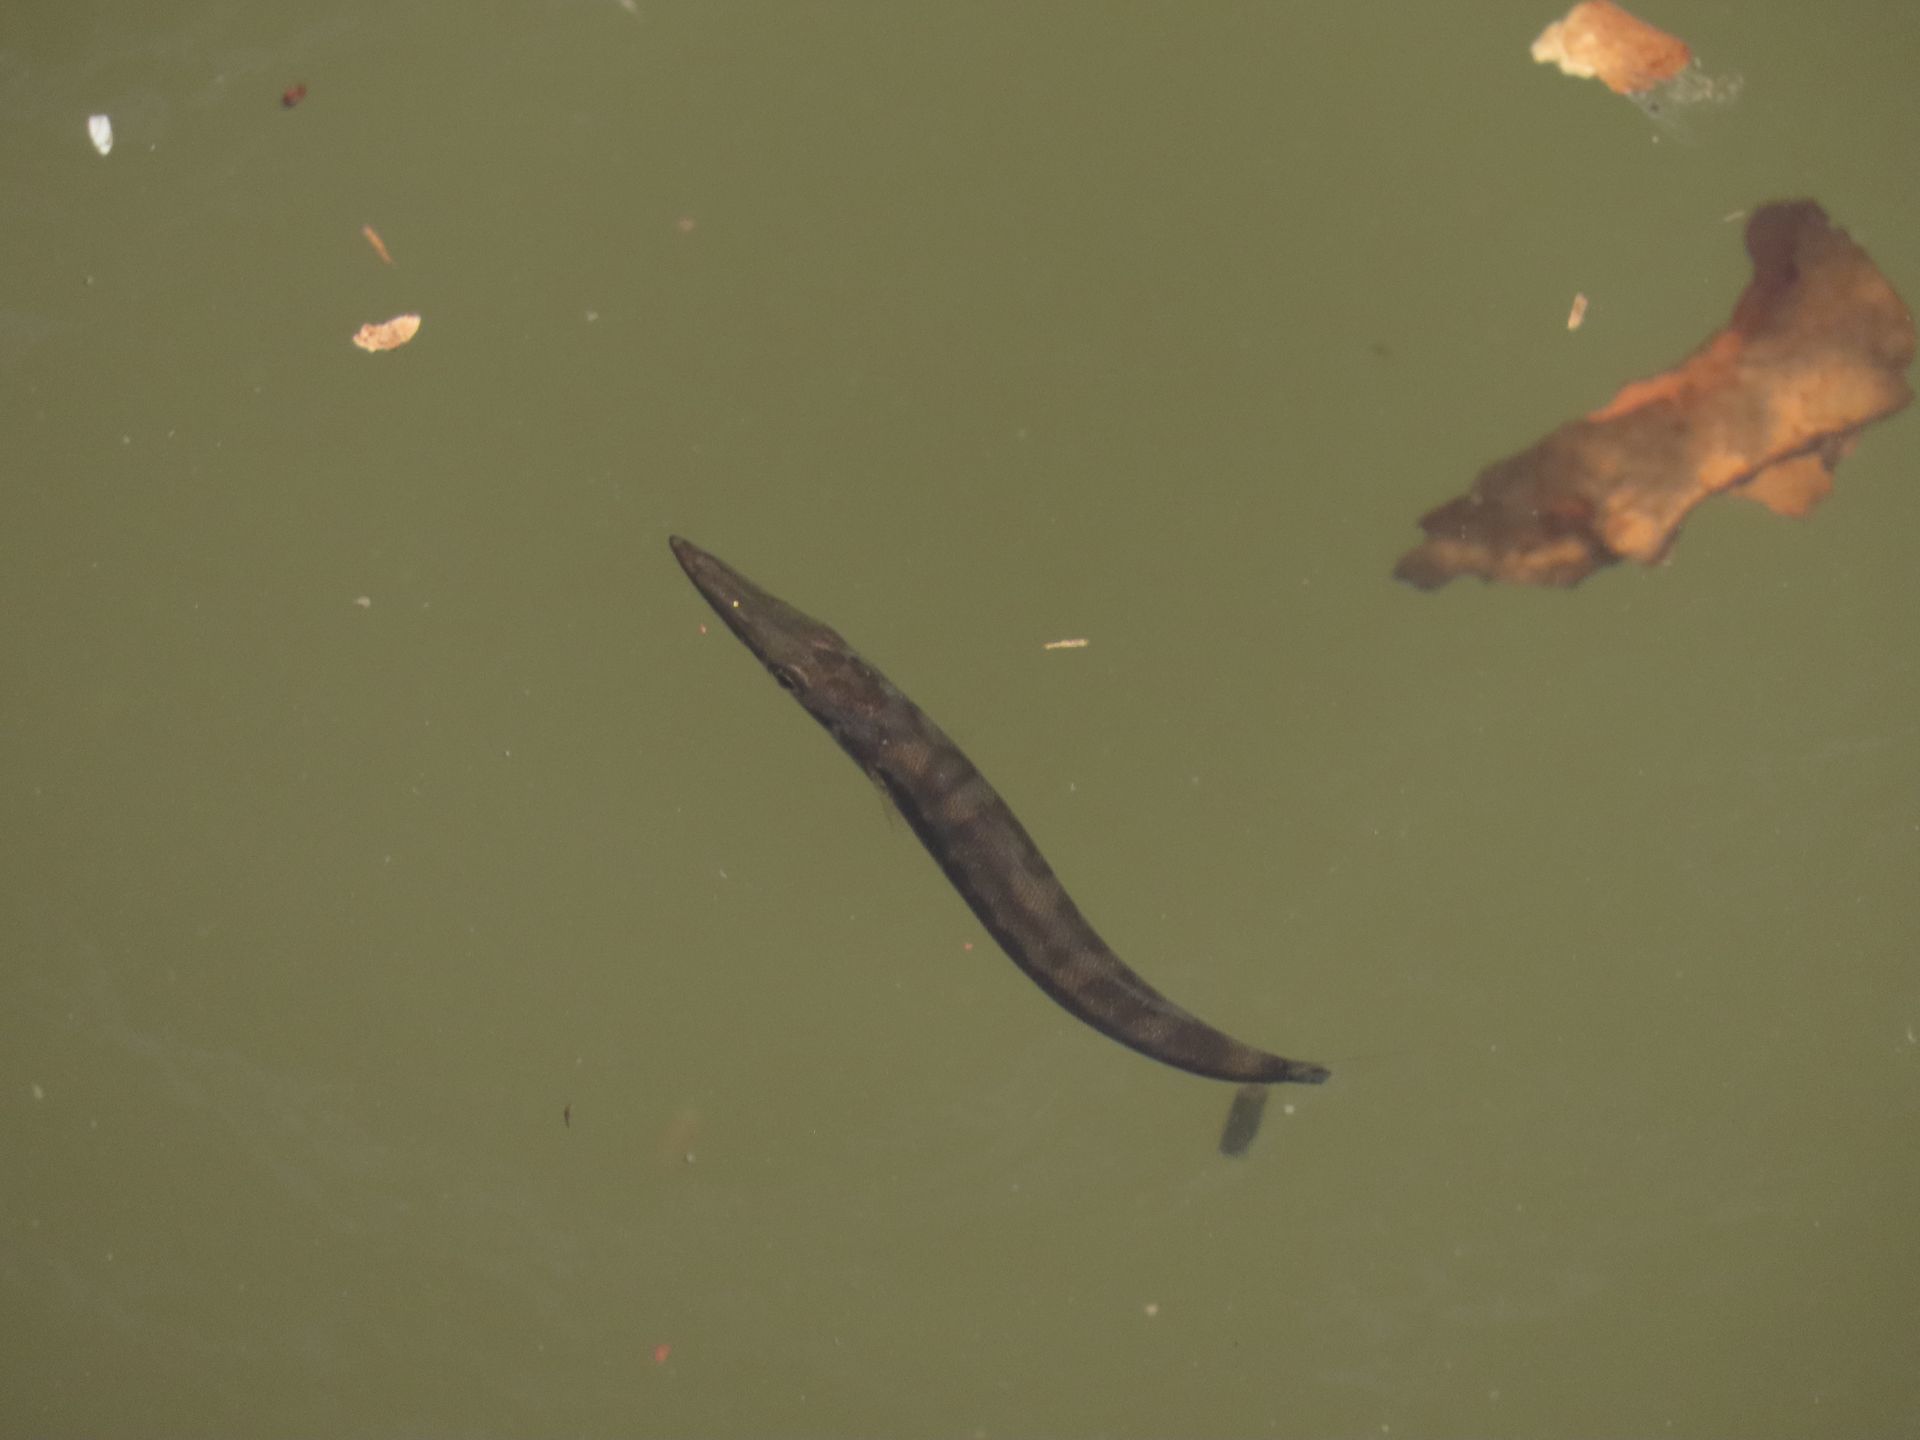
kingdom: Animalia
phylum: Chordata
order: Perciformes
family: Sphyraenidae
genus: Sphyraena
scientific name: Sphyraena barracuda
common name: Great barracuda
